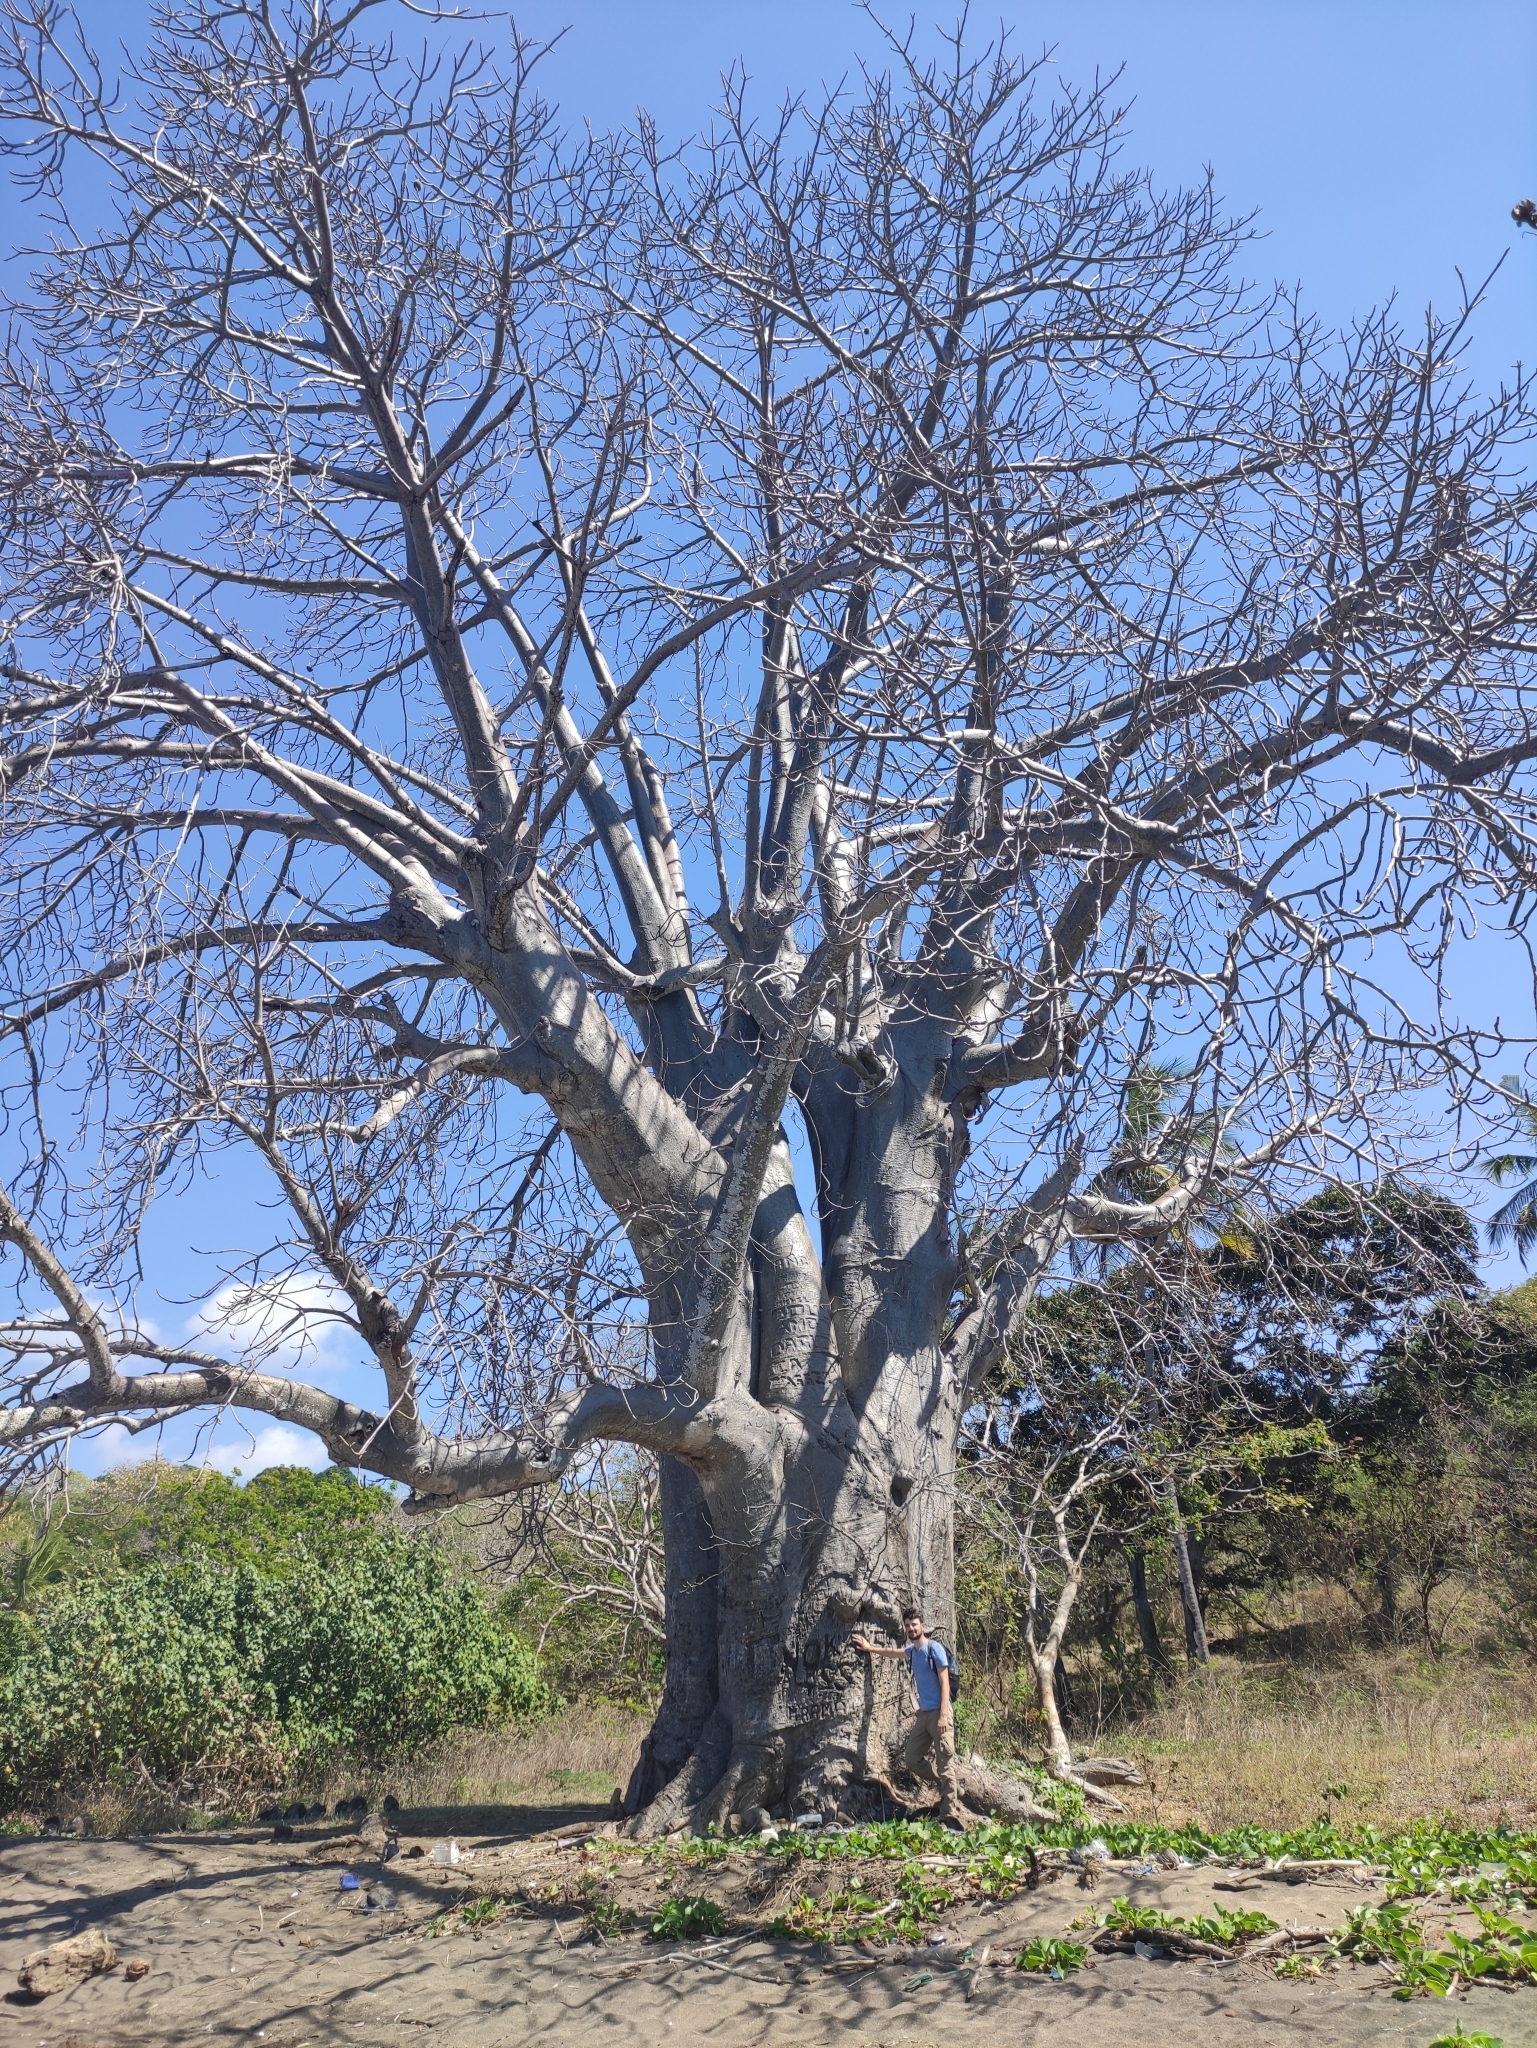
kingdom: Plantae
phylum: Tracheophyta
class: Magnoliopsida
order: Malvales
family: Malvaceae
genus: Adansonia
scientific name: Adansonia digitata
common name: Dead-rat-tree
